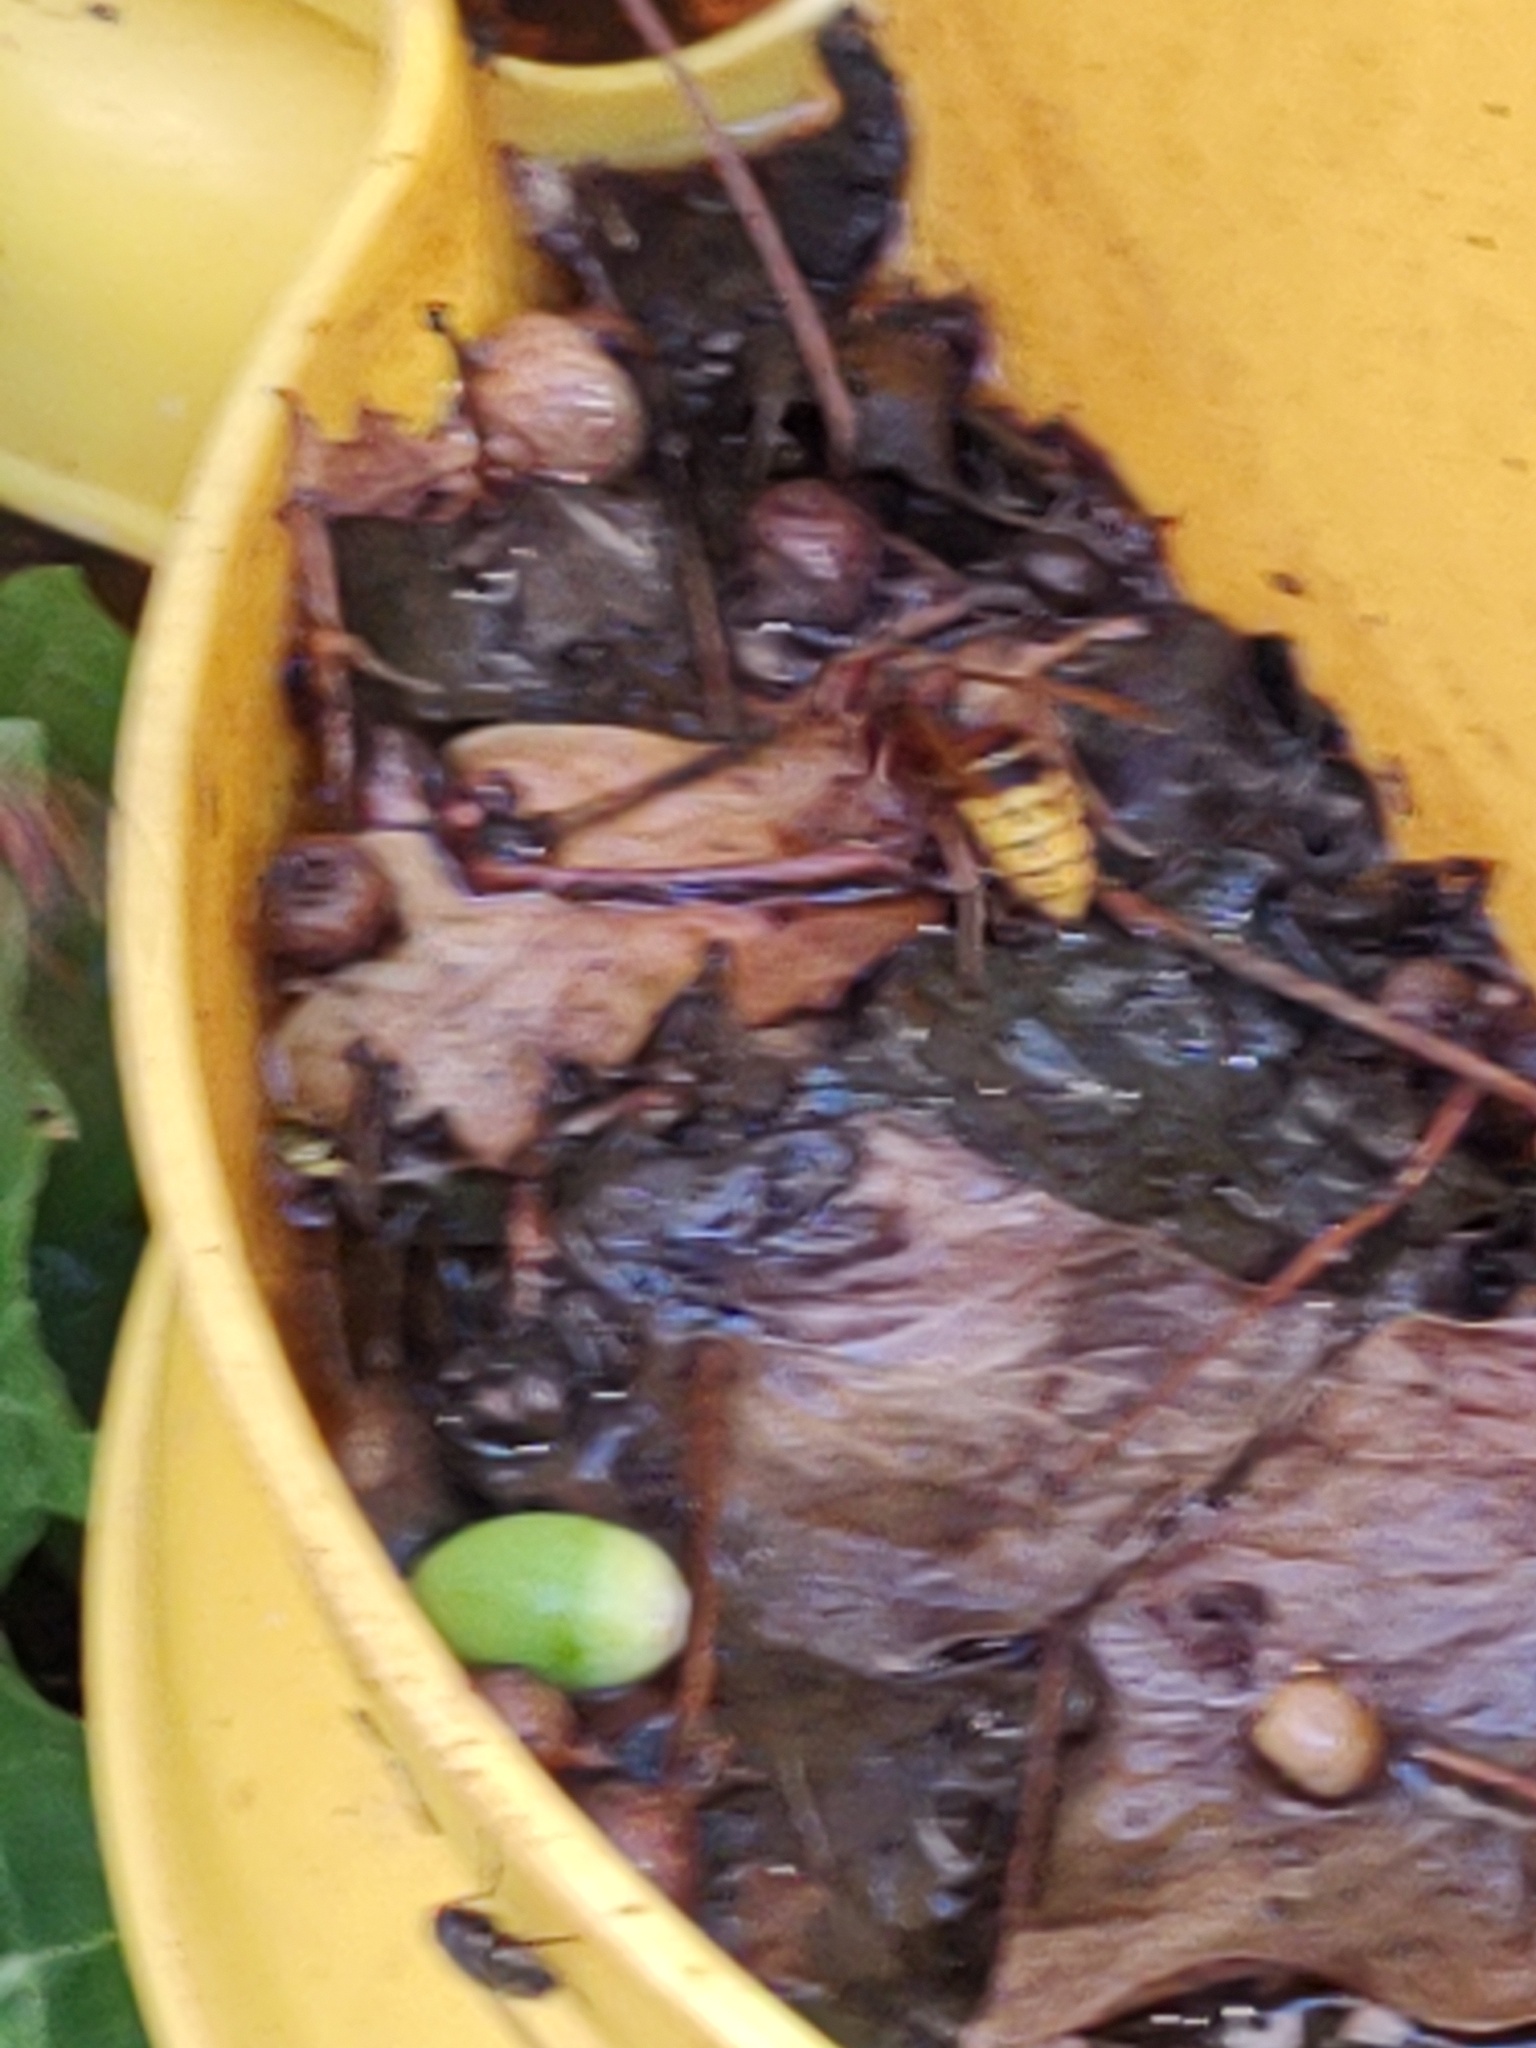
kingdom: Animalia
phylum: Arthropoda
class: Insecta
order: Hymenoptera
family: Vespidae
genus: Vespa
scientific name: Vespa crabro
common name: Hornet
